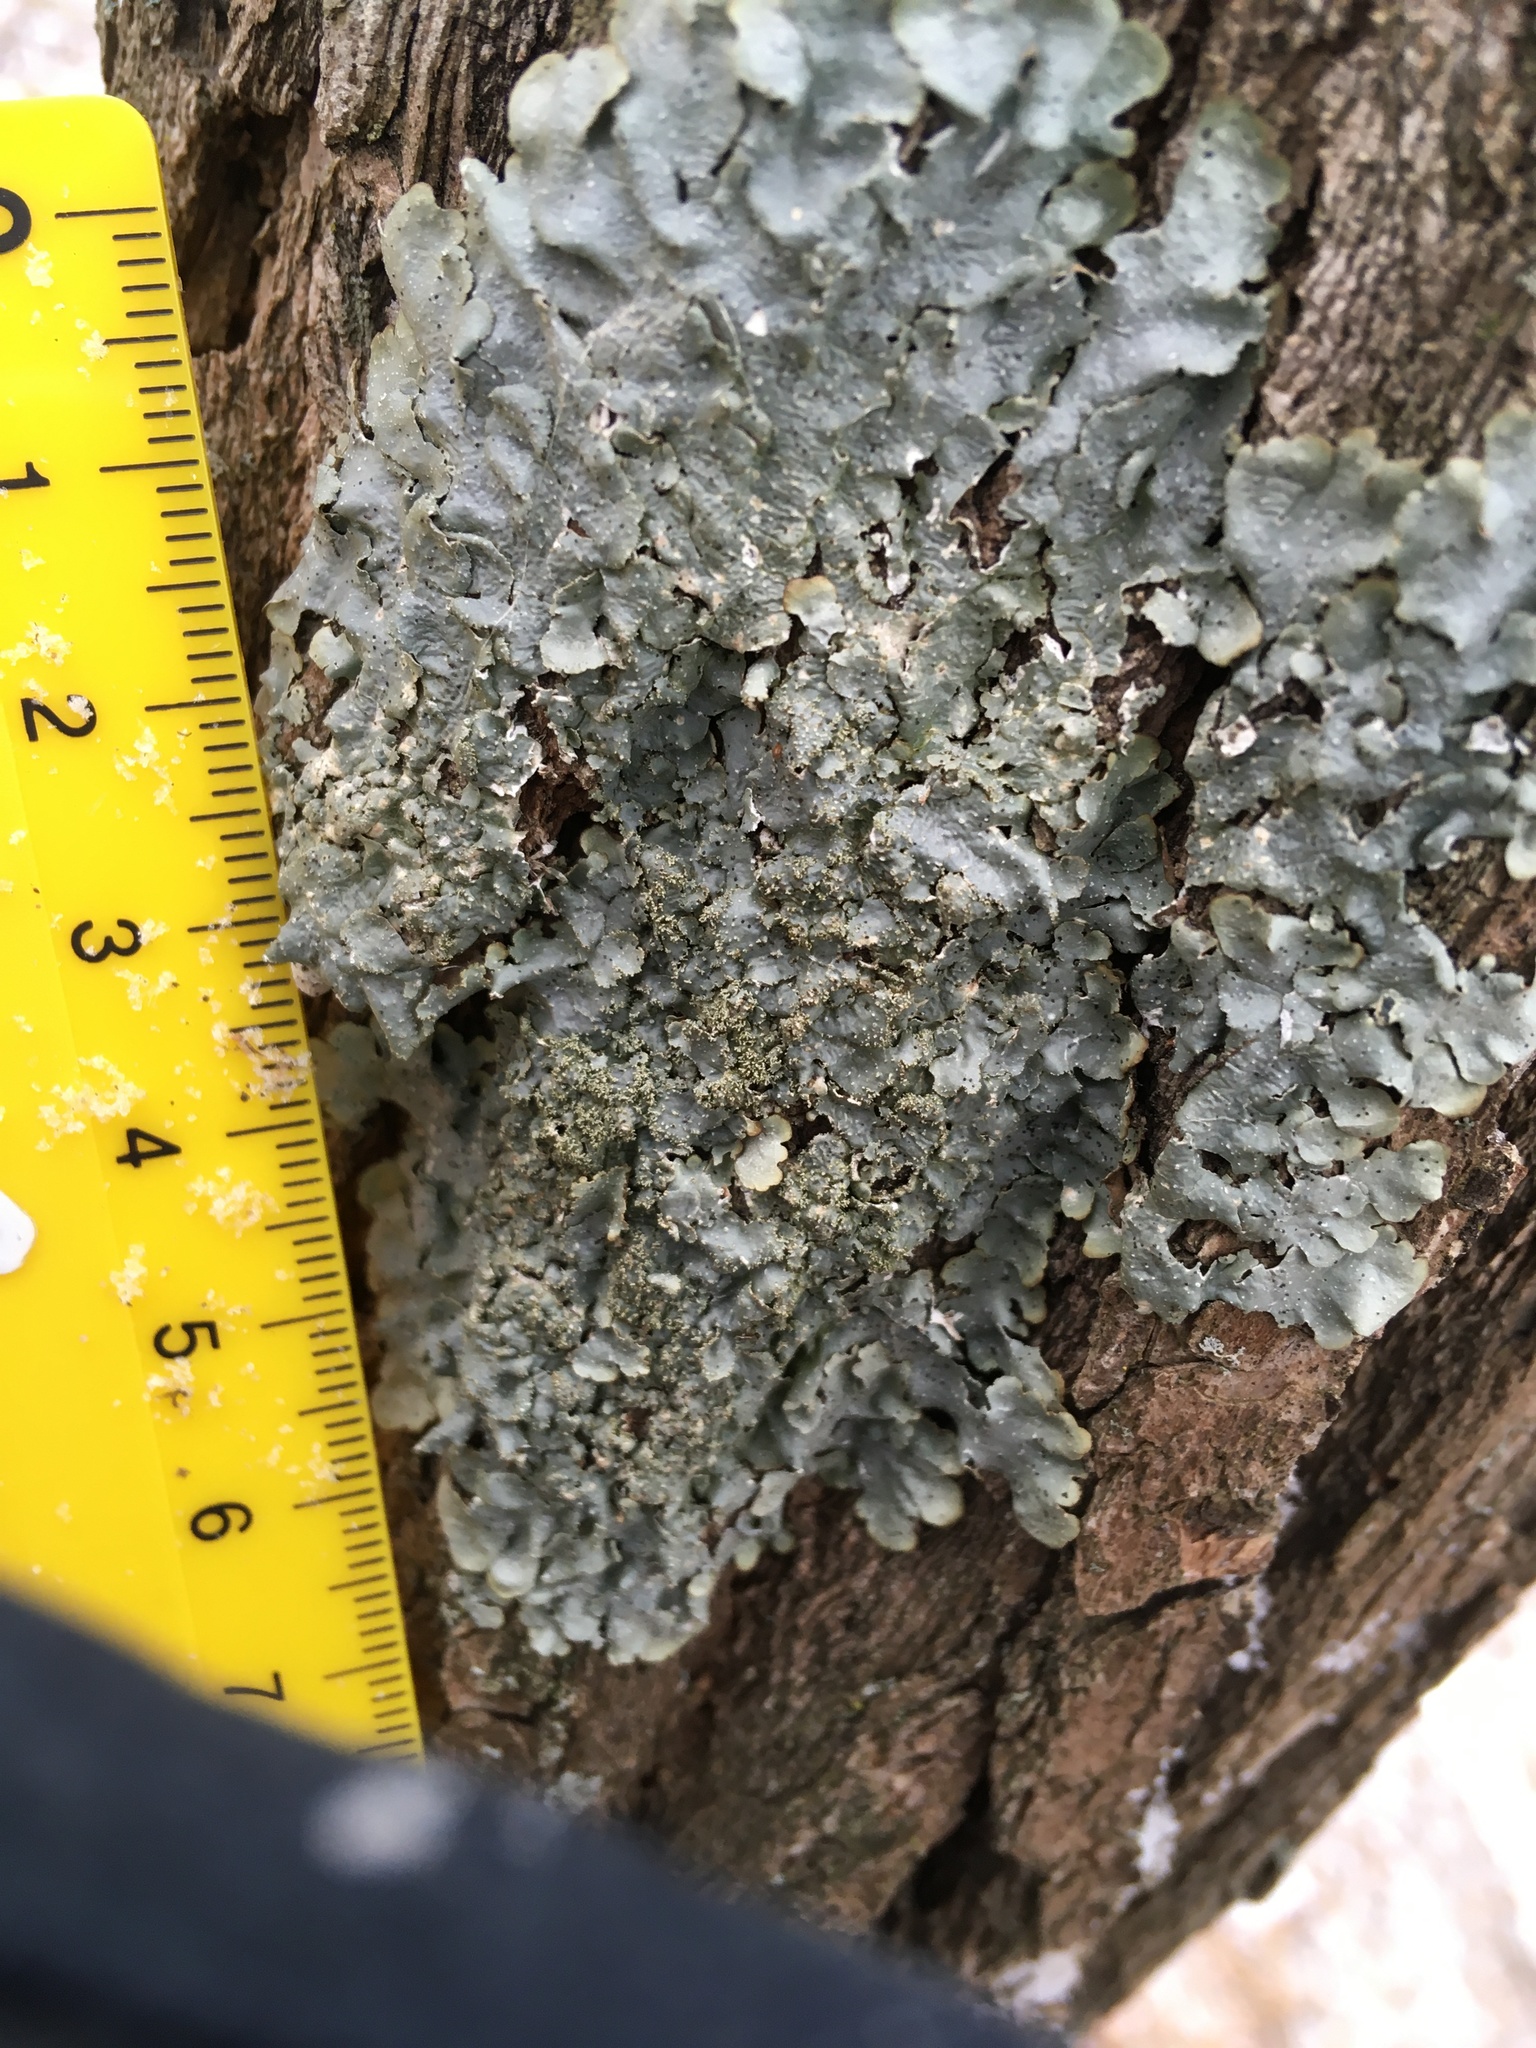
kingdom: Fungi
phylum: Ascomycota
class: Lecanoromycetes
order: Lecanorales
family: Parmeliaceae
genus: Punctelia
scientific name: Punctelia rudecta
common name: Rough speckled shield lichen
